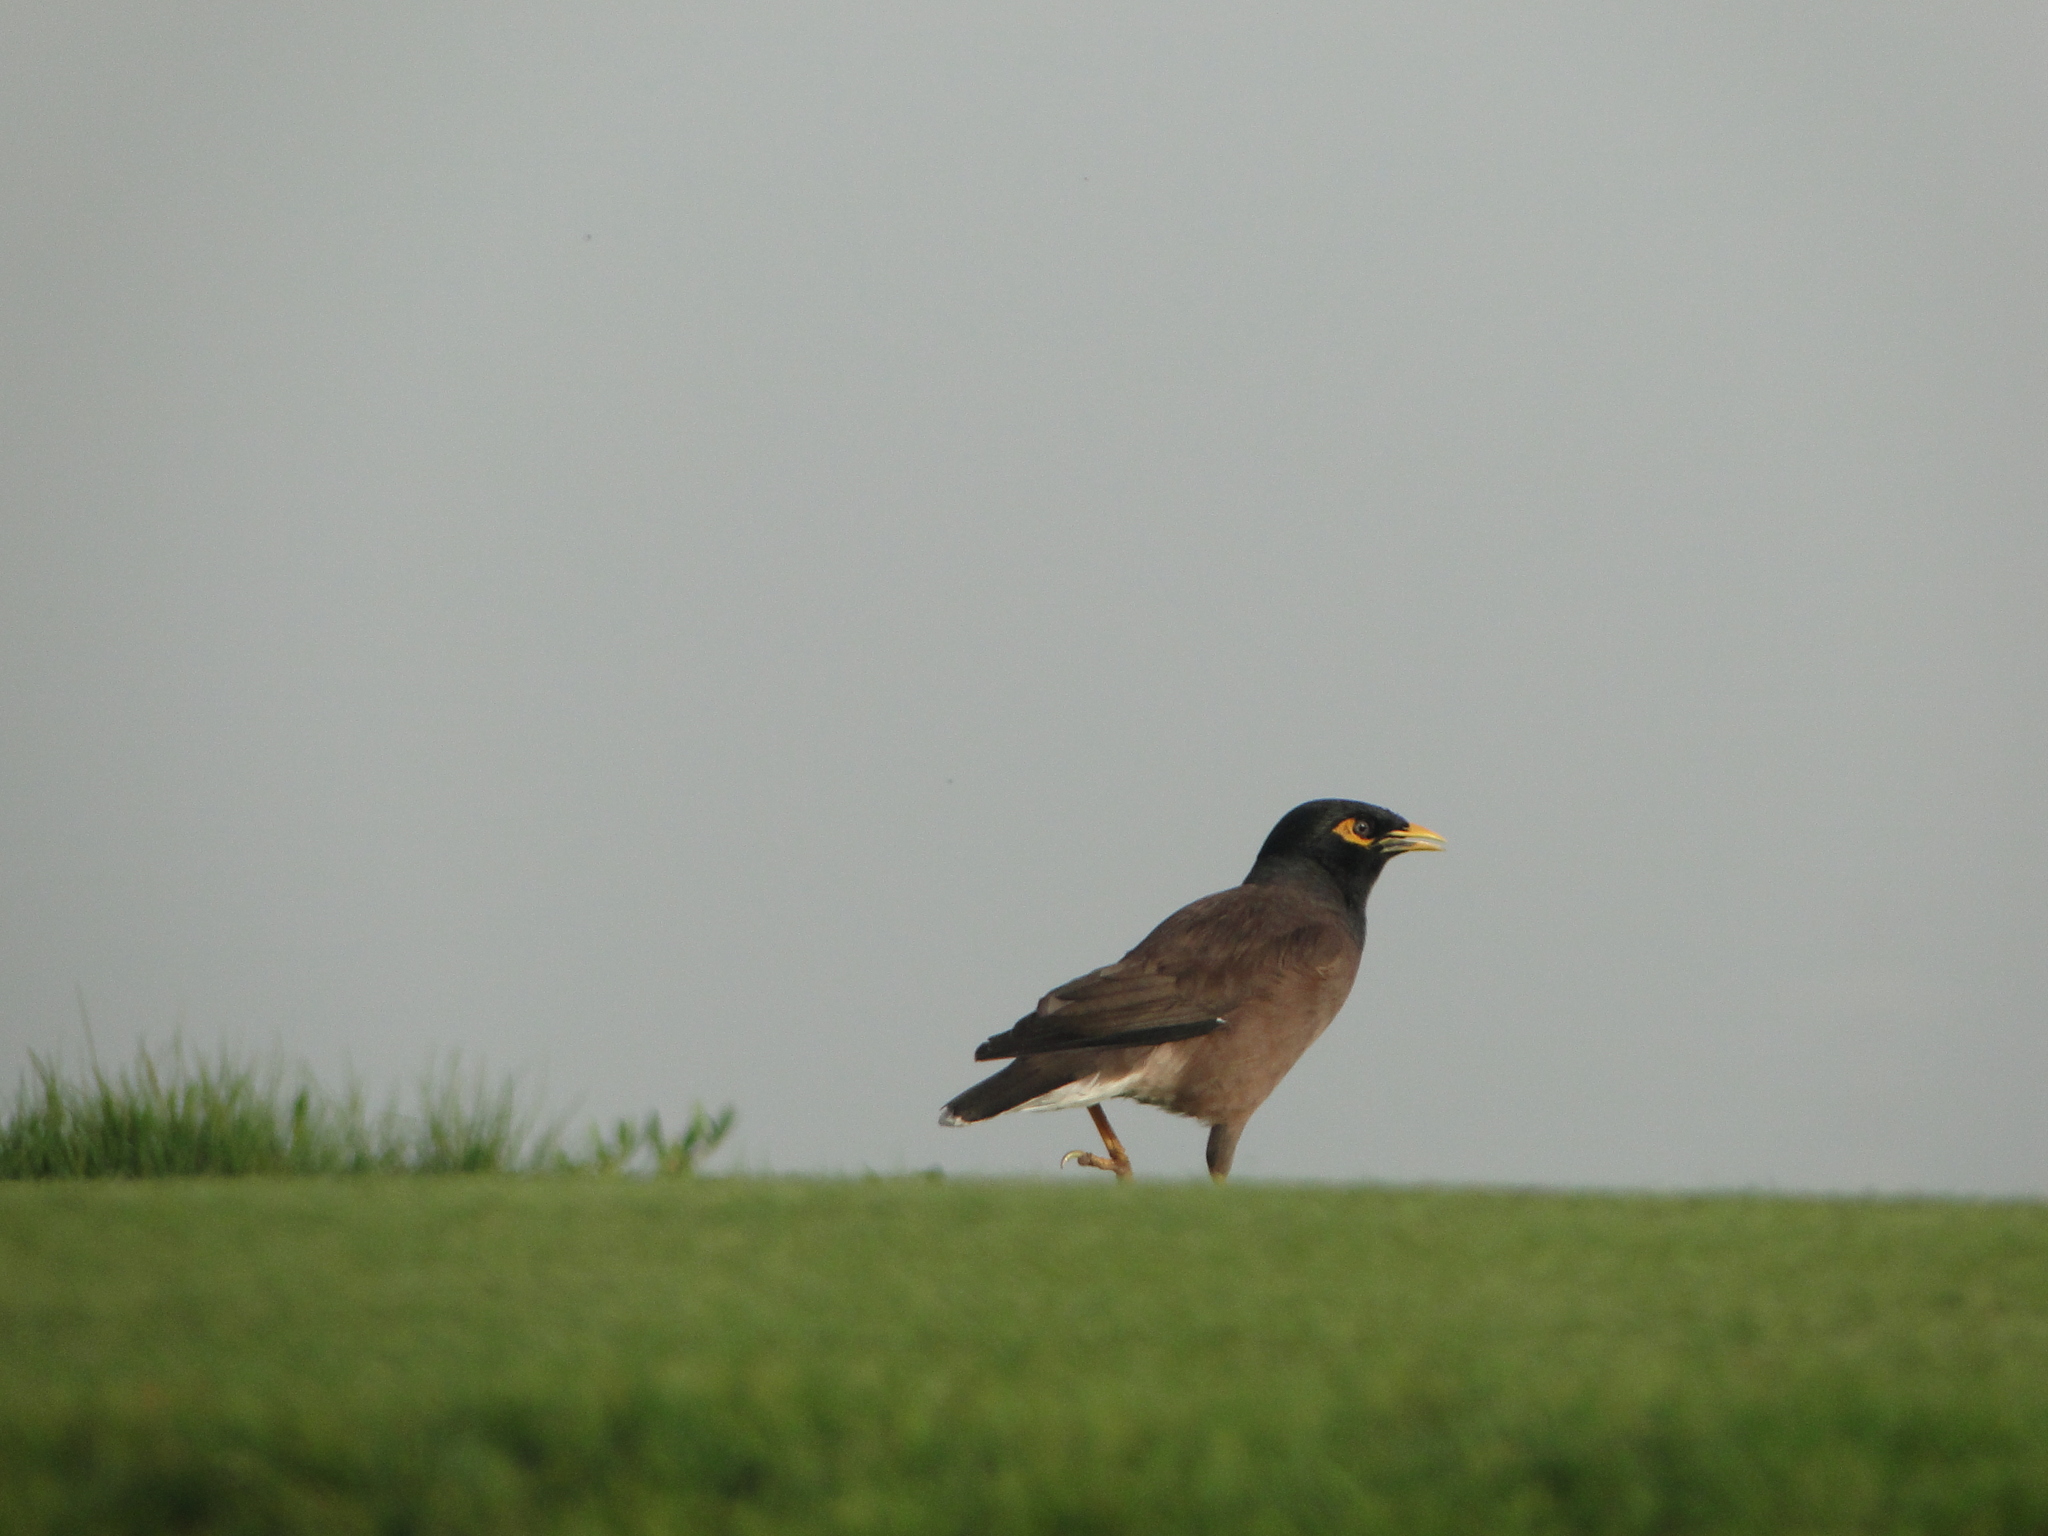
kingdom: Animalia
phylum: Chordata
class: Aves
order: Passeriformes
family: Sturnidae
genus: Acridotheres
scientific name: Acridotheres tristis
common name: Common myna
